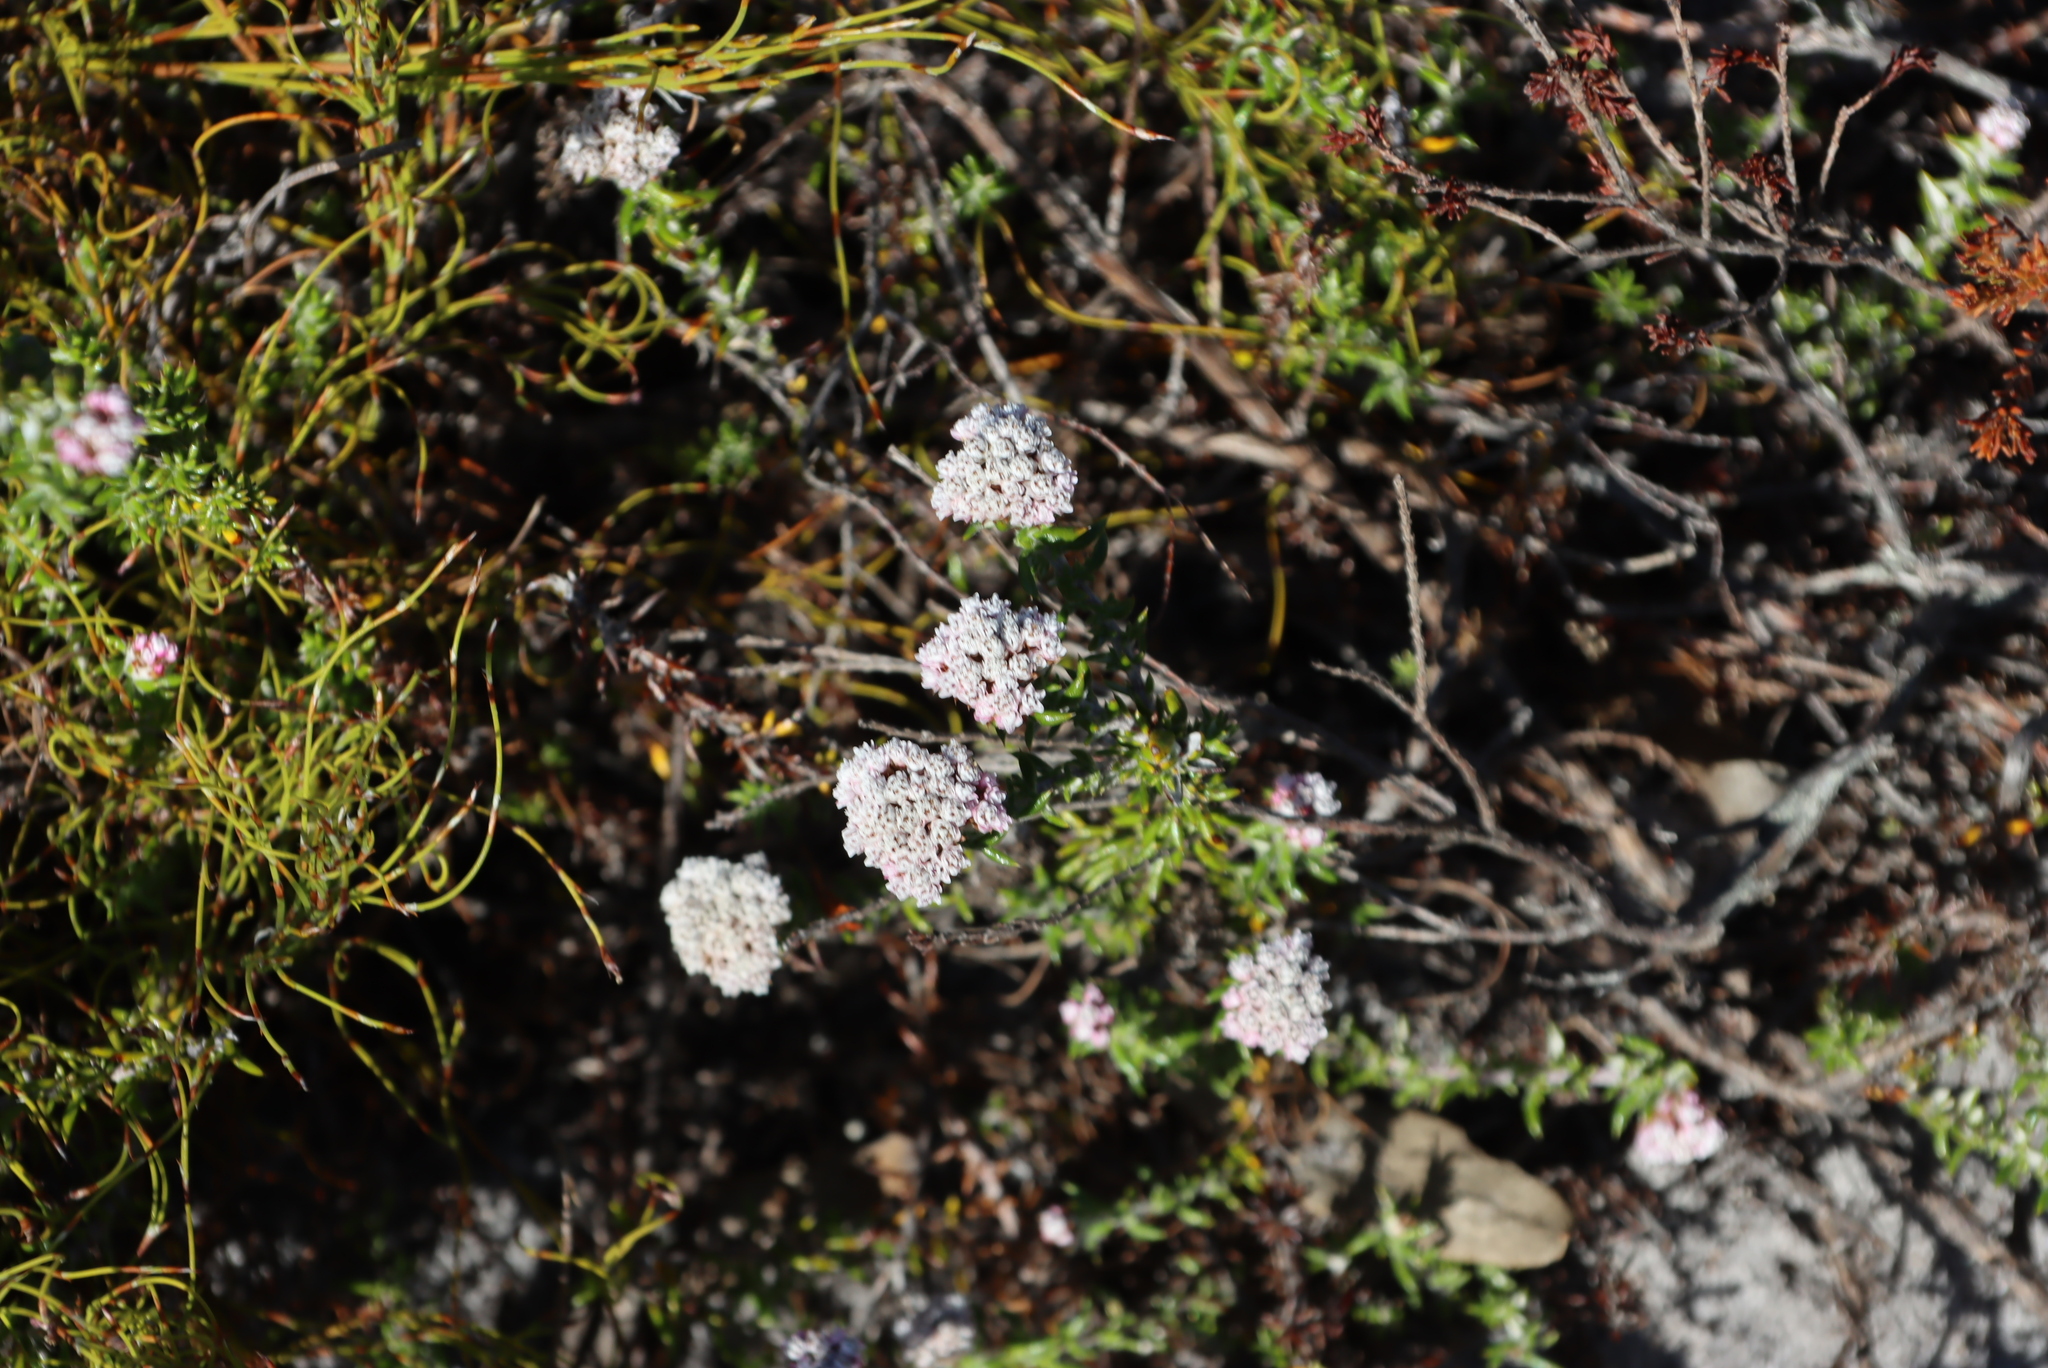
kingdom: Plantae
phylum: Tracheophyta
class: Magnoliopsida
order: Asterales
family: Asteraceae
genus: Metalasia
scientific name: Metalasia densa
